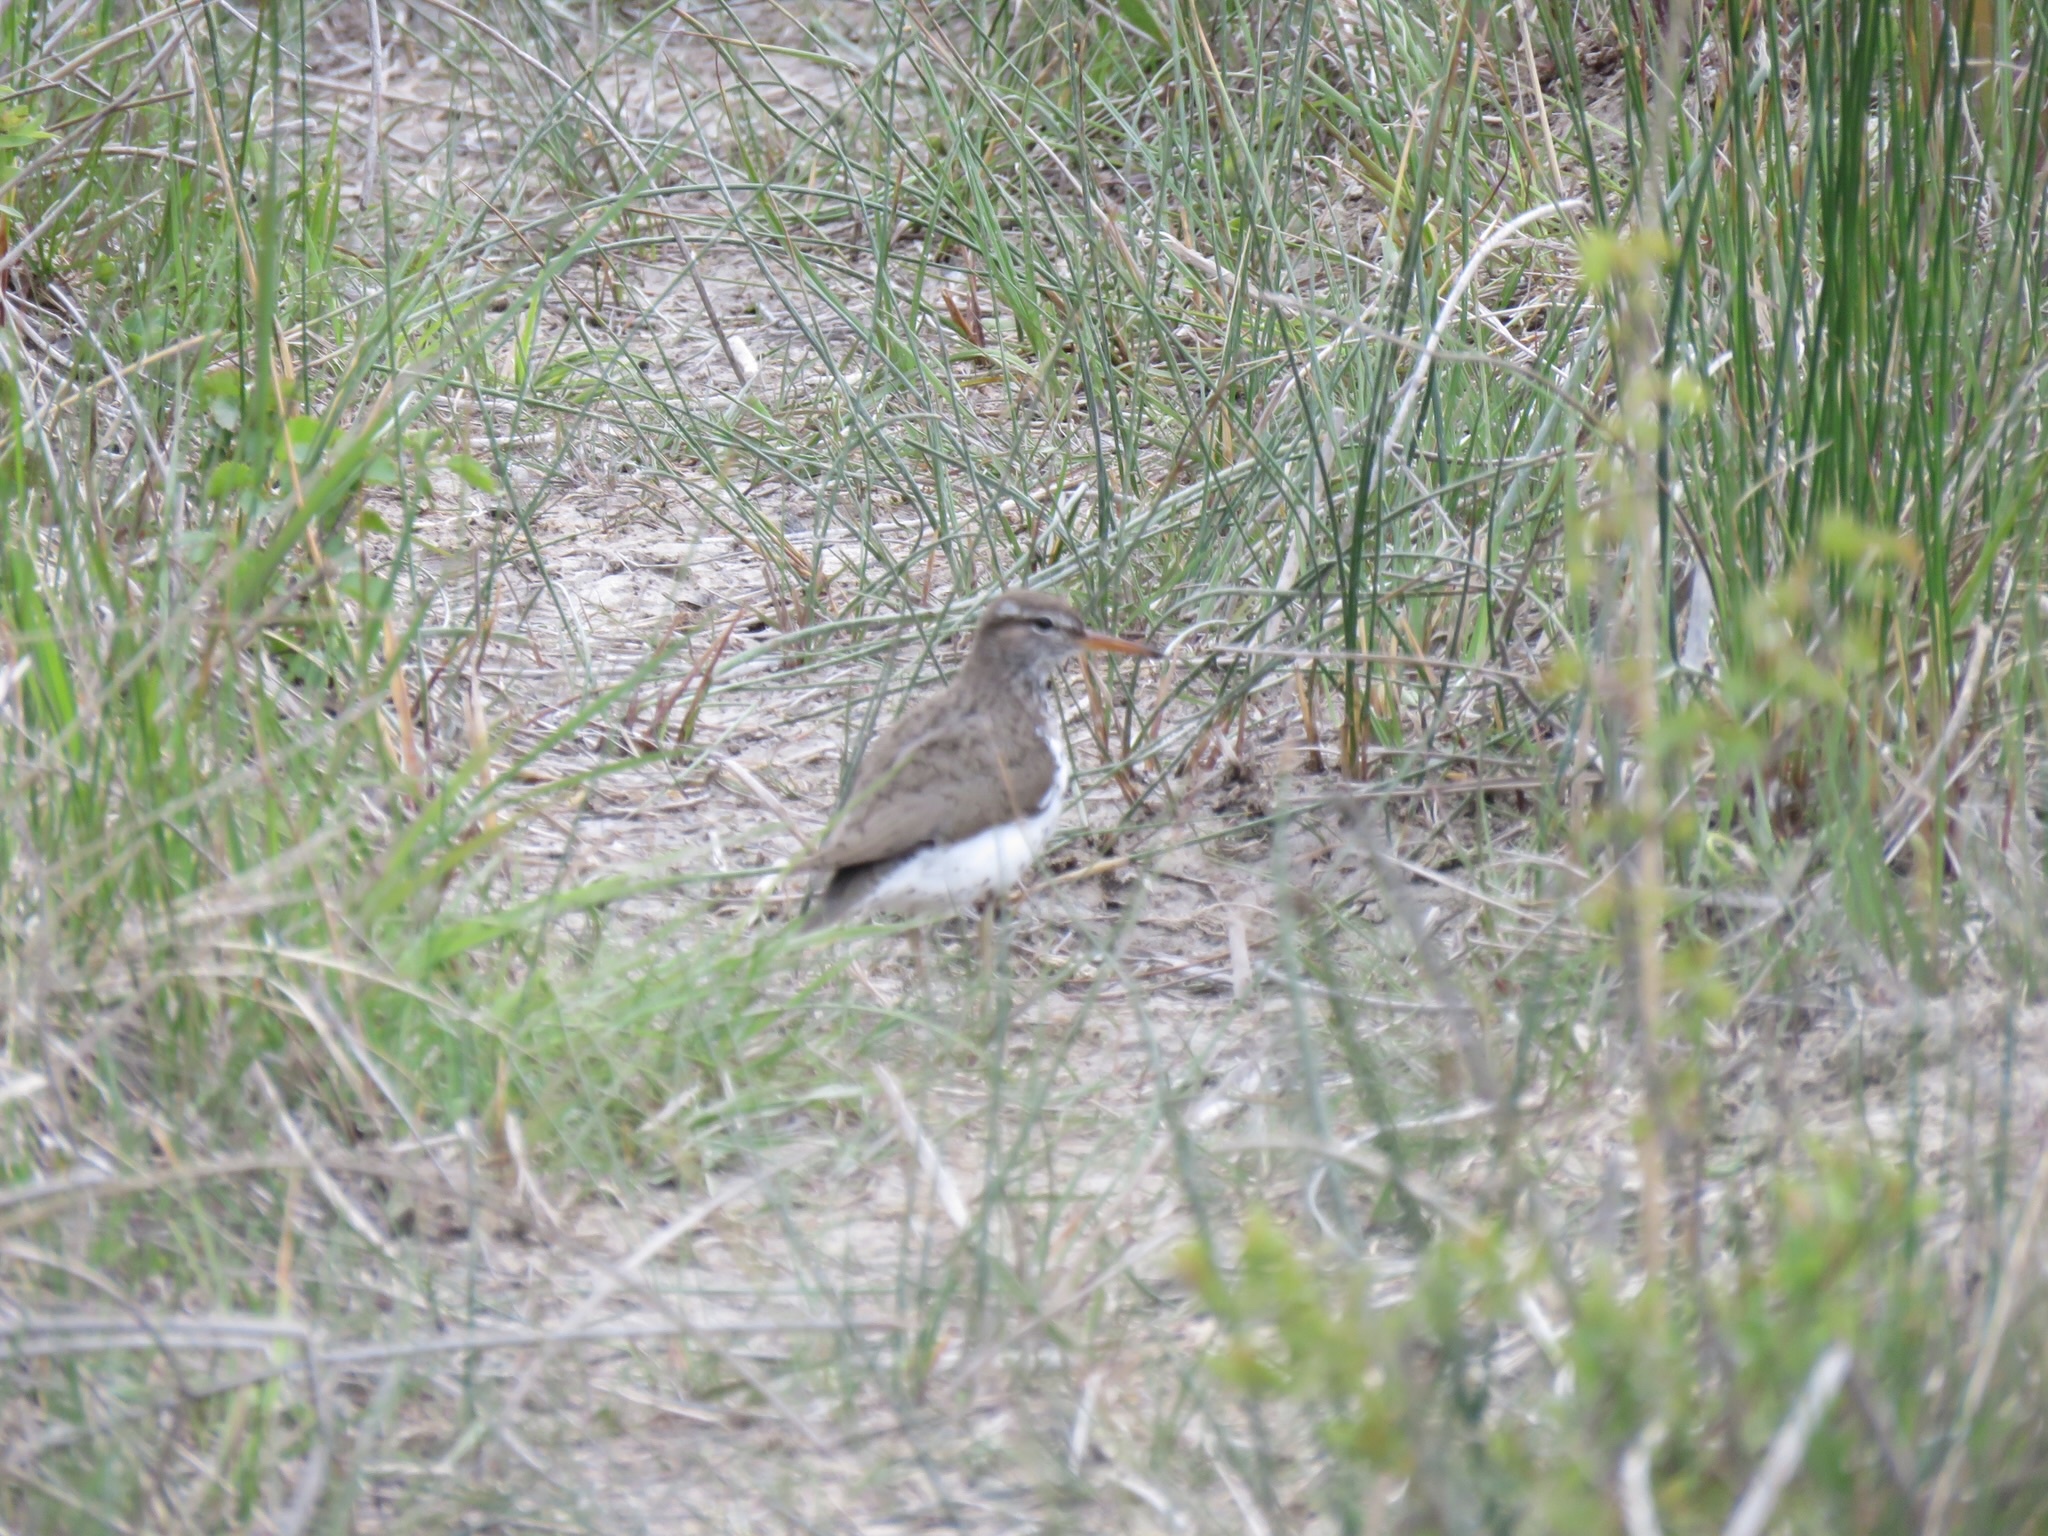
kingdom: Animalia
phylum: Chordata
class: Aves
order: Charadriiformes
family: Scolopacidae
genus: Actitis
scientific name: Actitis macularius
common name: Spotted sandpiper
